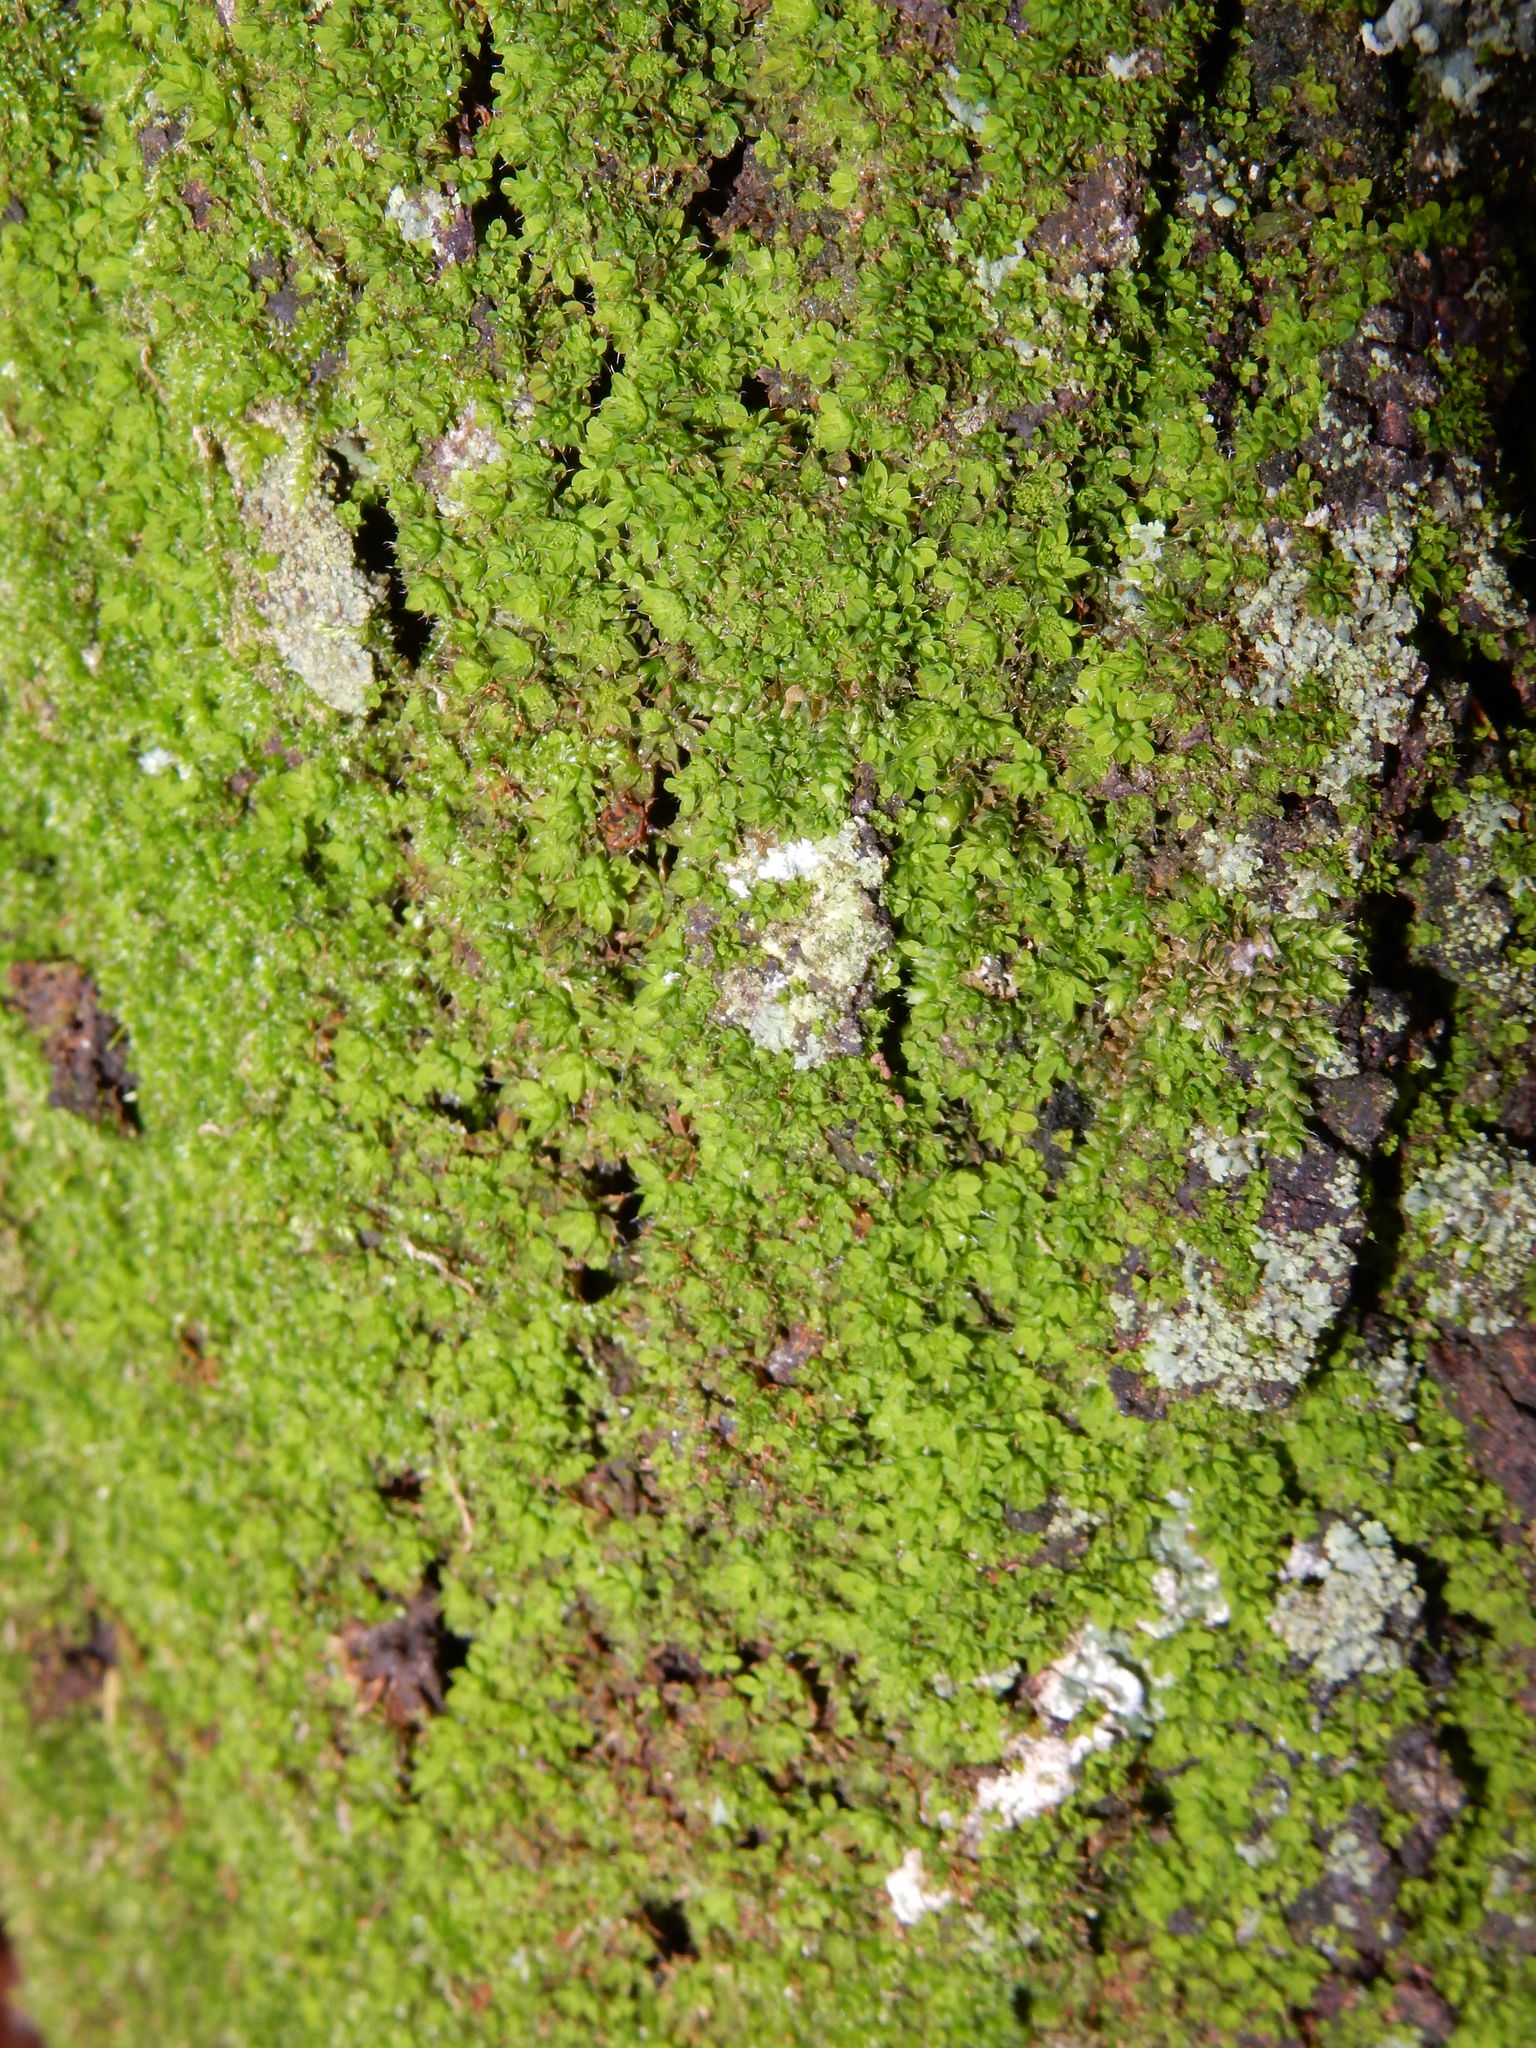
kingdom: Plantae
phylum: Bryophyta
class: Bryopsida
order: Pottiales
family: Pottiaceae
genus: Syntrichia
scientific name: Syntrichia pagorum
